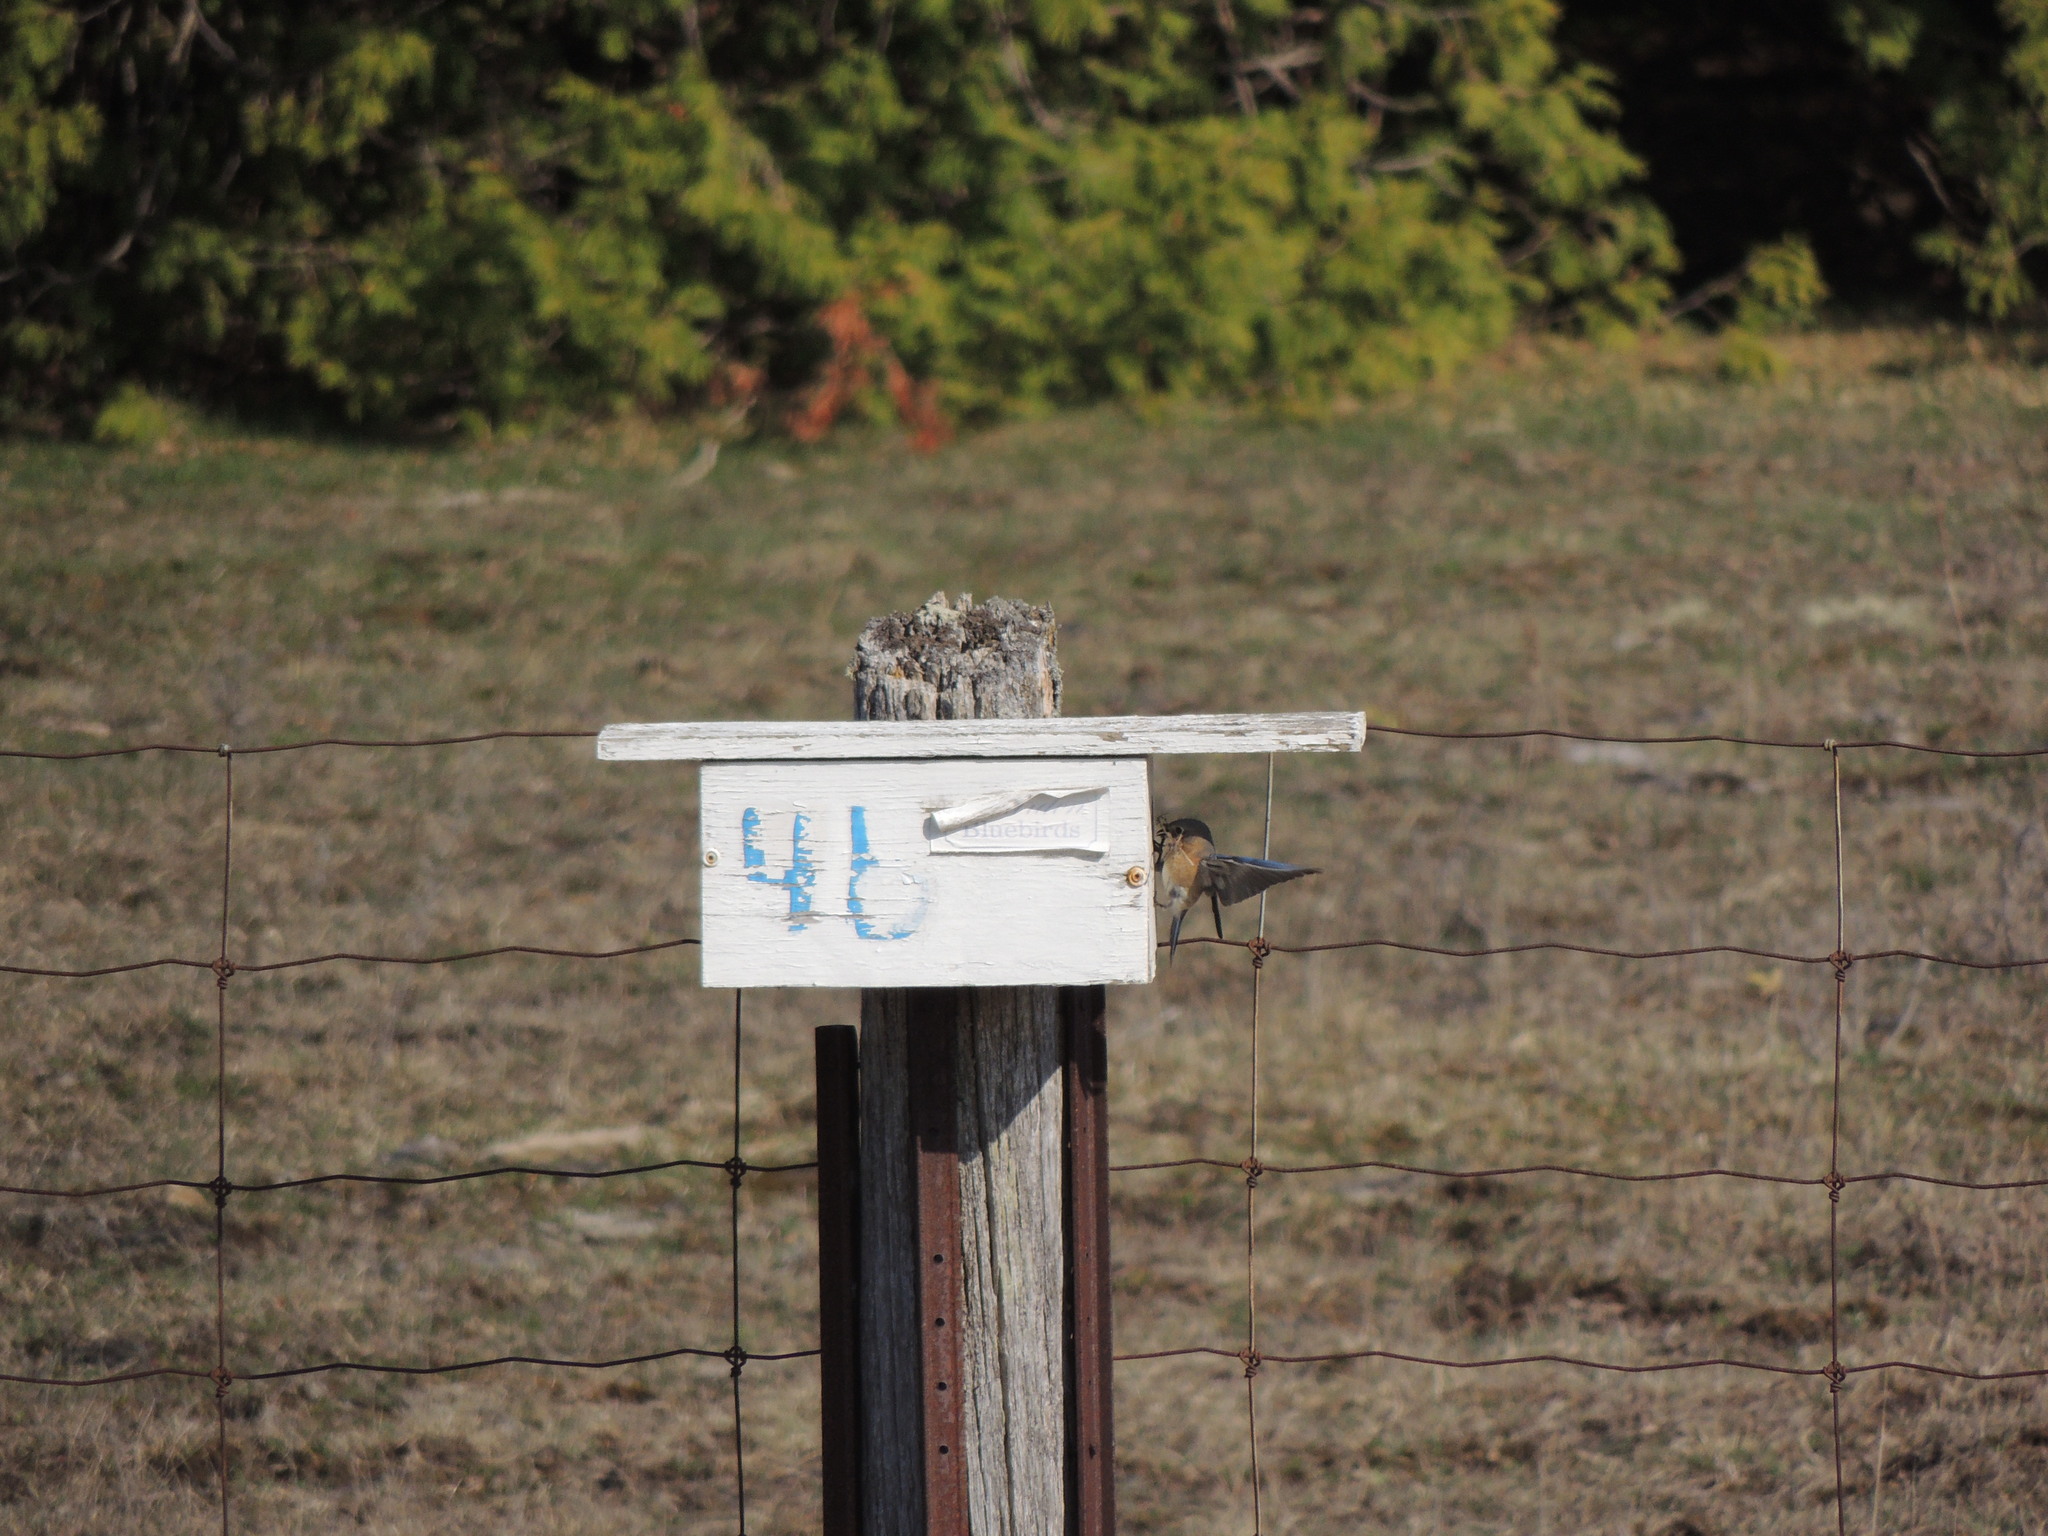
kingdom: Animalia
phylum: Chordata
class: Aves
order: Passeriformes
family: Turdidae
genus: Sialia
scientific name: Sialia sialis
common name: Eastern bluebird
